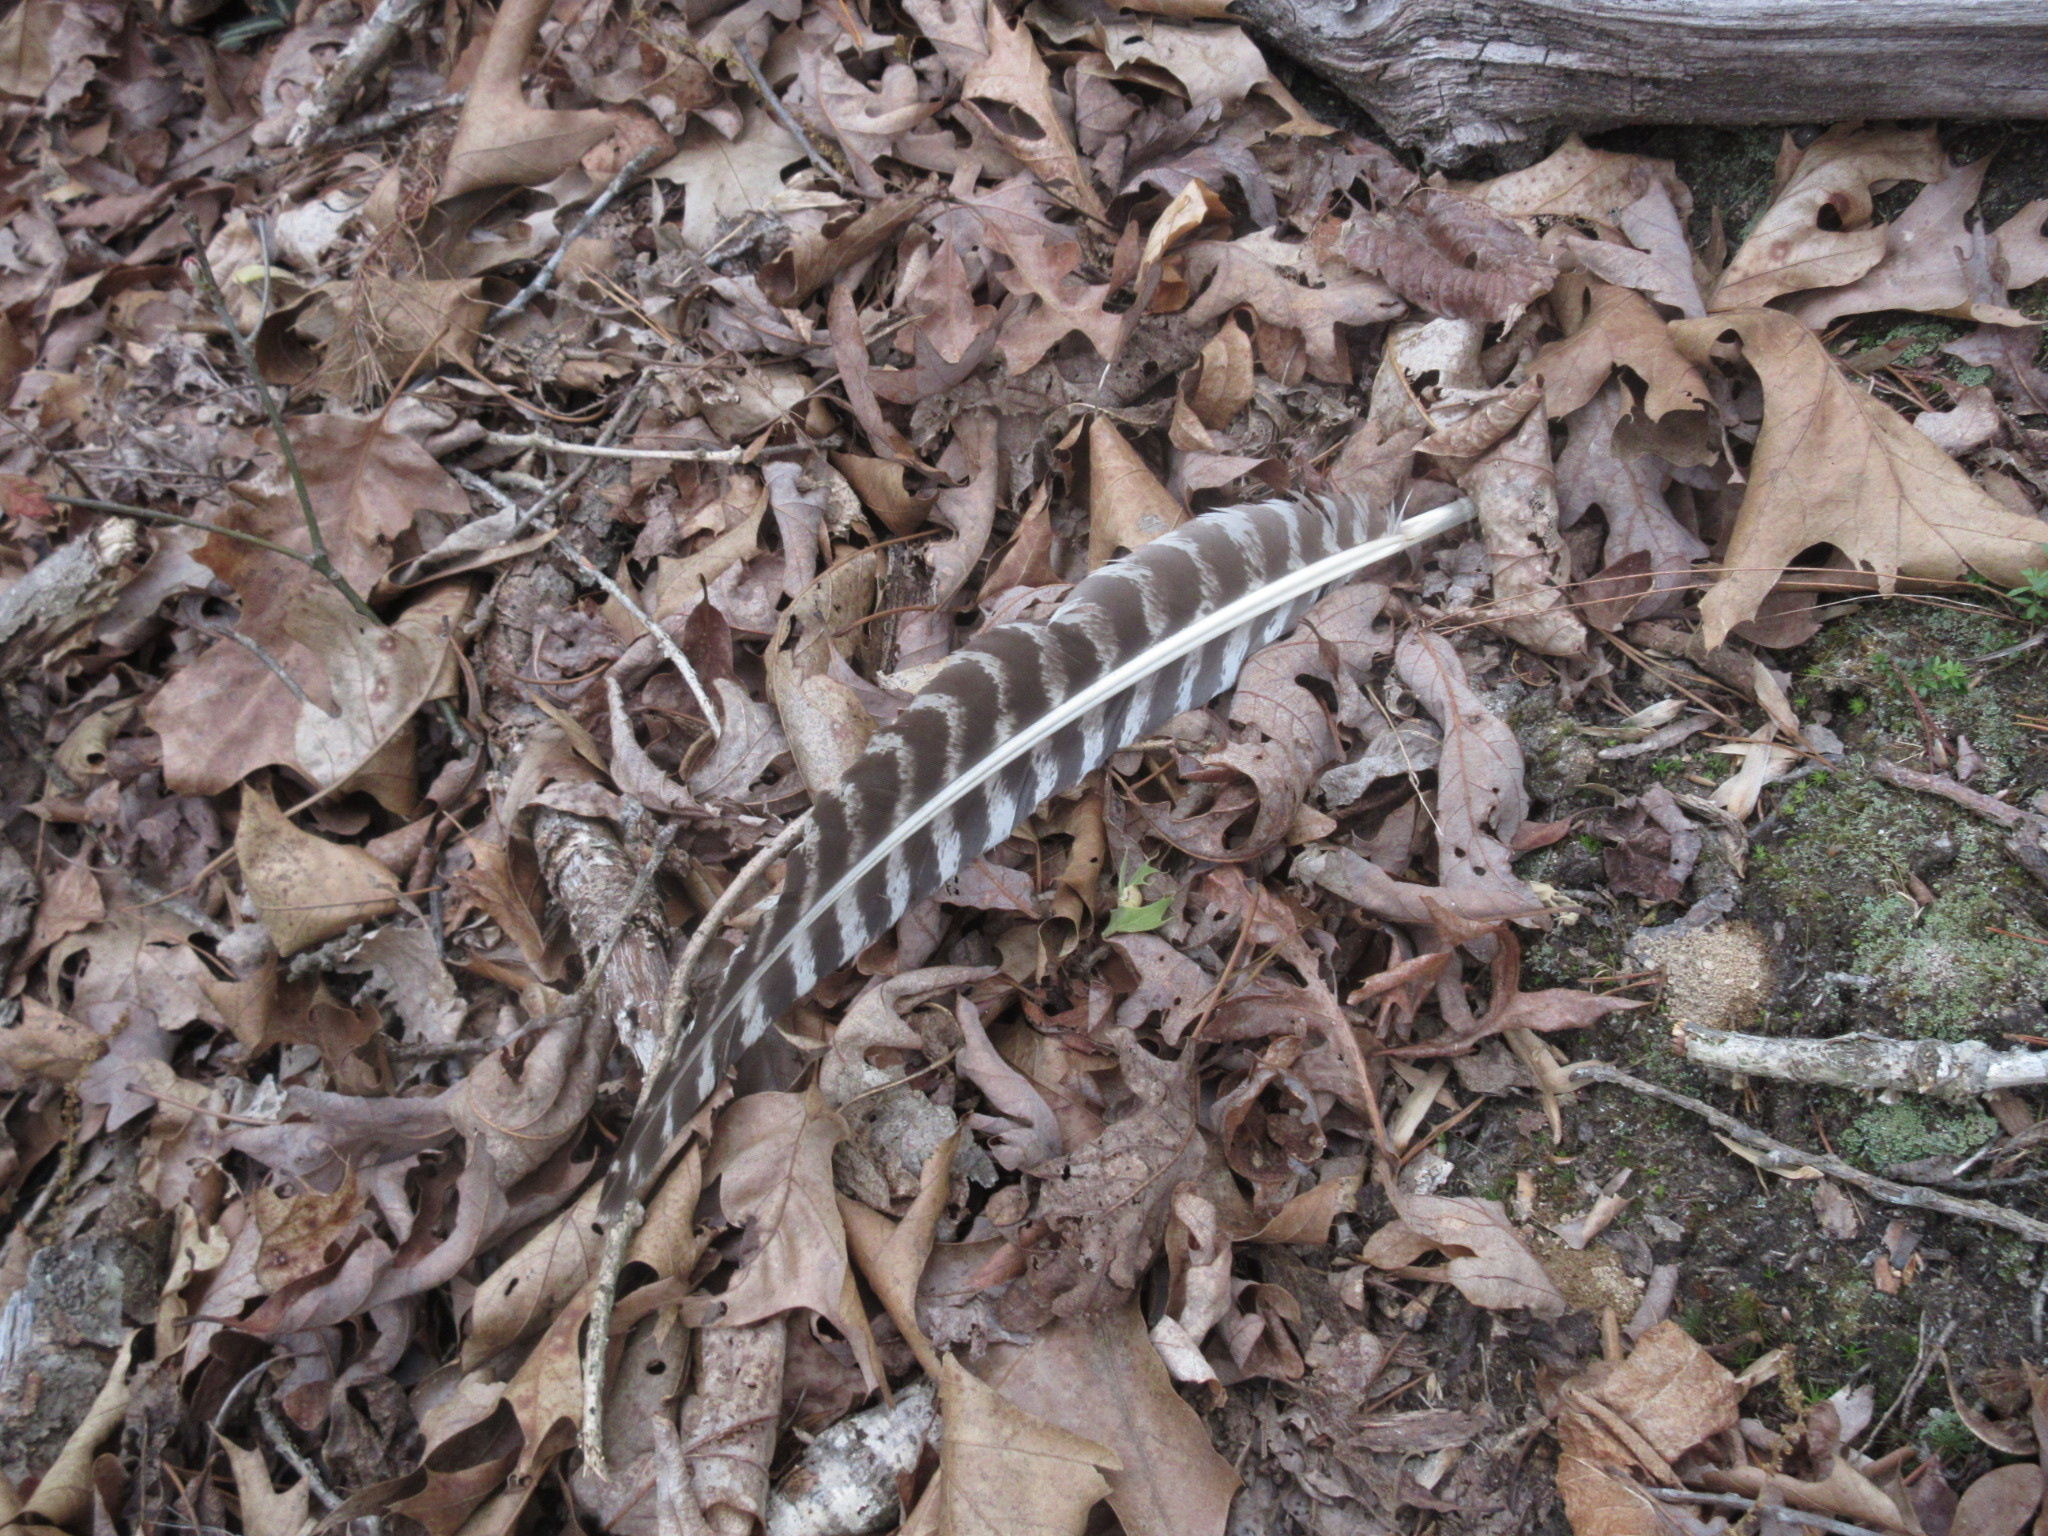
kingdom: Animalia
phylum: Chordata
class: Aves
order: Galliformes
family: Phasianidae
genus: Meleagris
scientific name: Meleagris gallopavo
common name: Wild turkey
